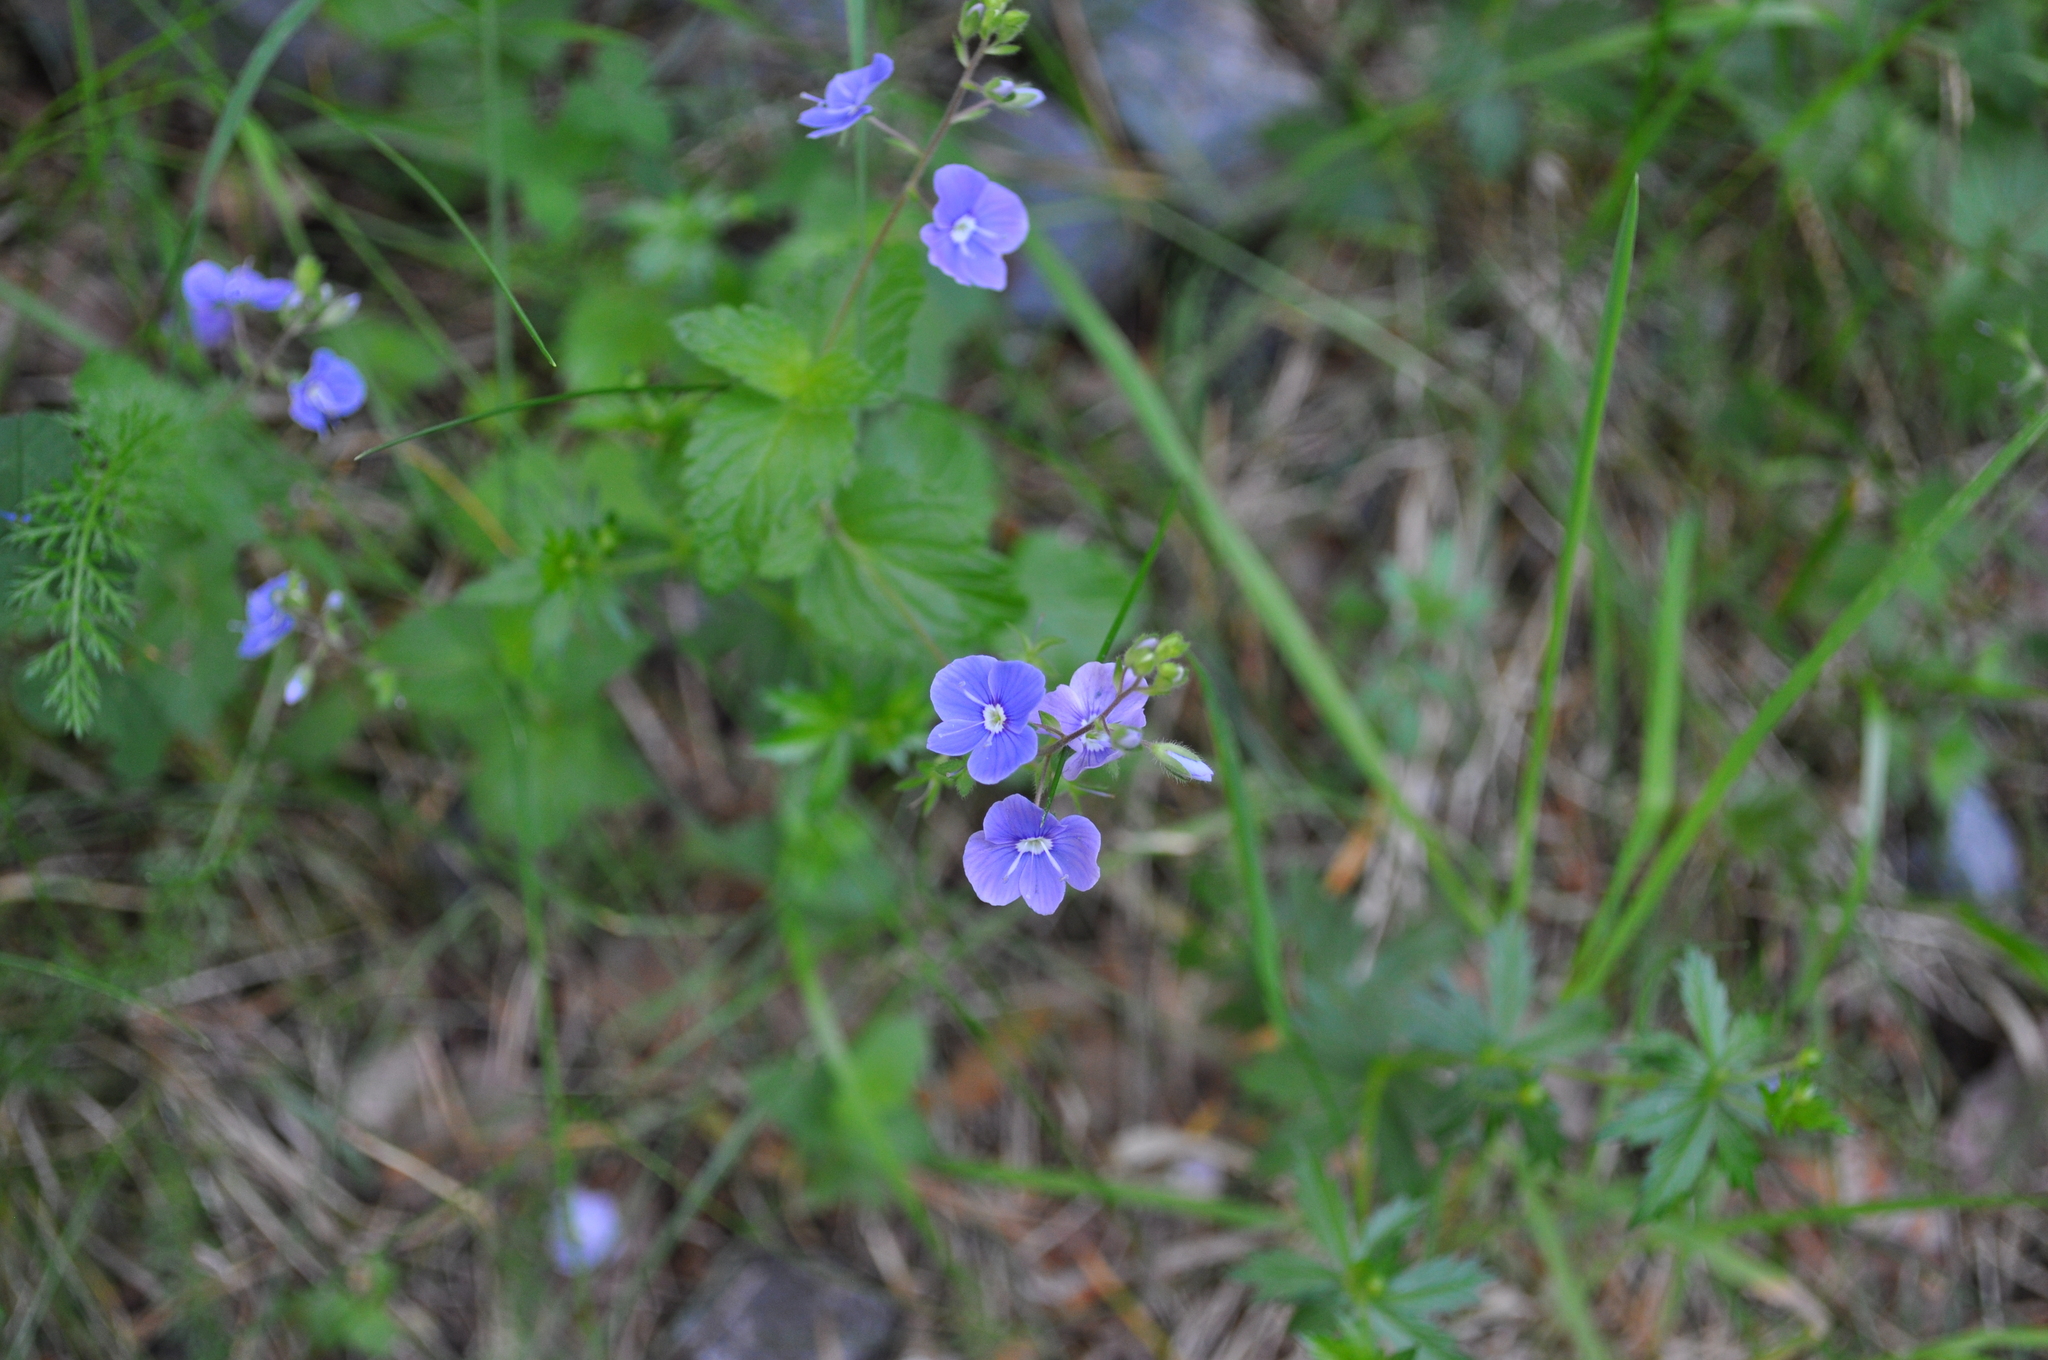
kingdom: Plantae
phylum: Tracheophyta
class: Magnoliopsida
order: Lamiales
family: Plantaginaceae
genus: Veronica
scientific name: Veronica chamaedrys
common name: Germander speedwell
